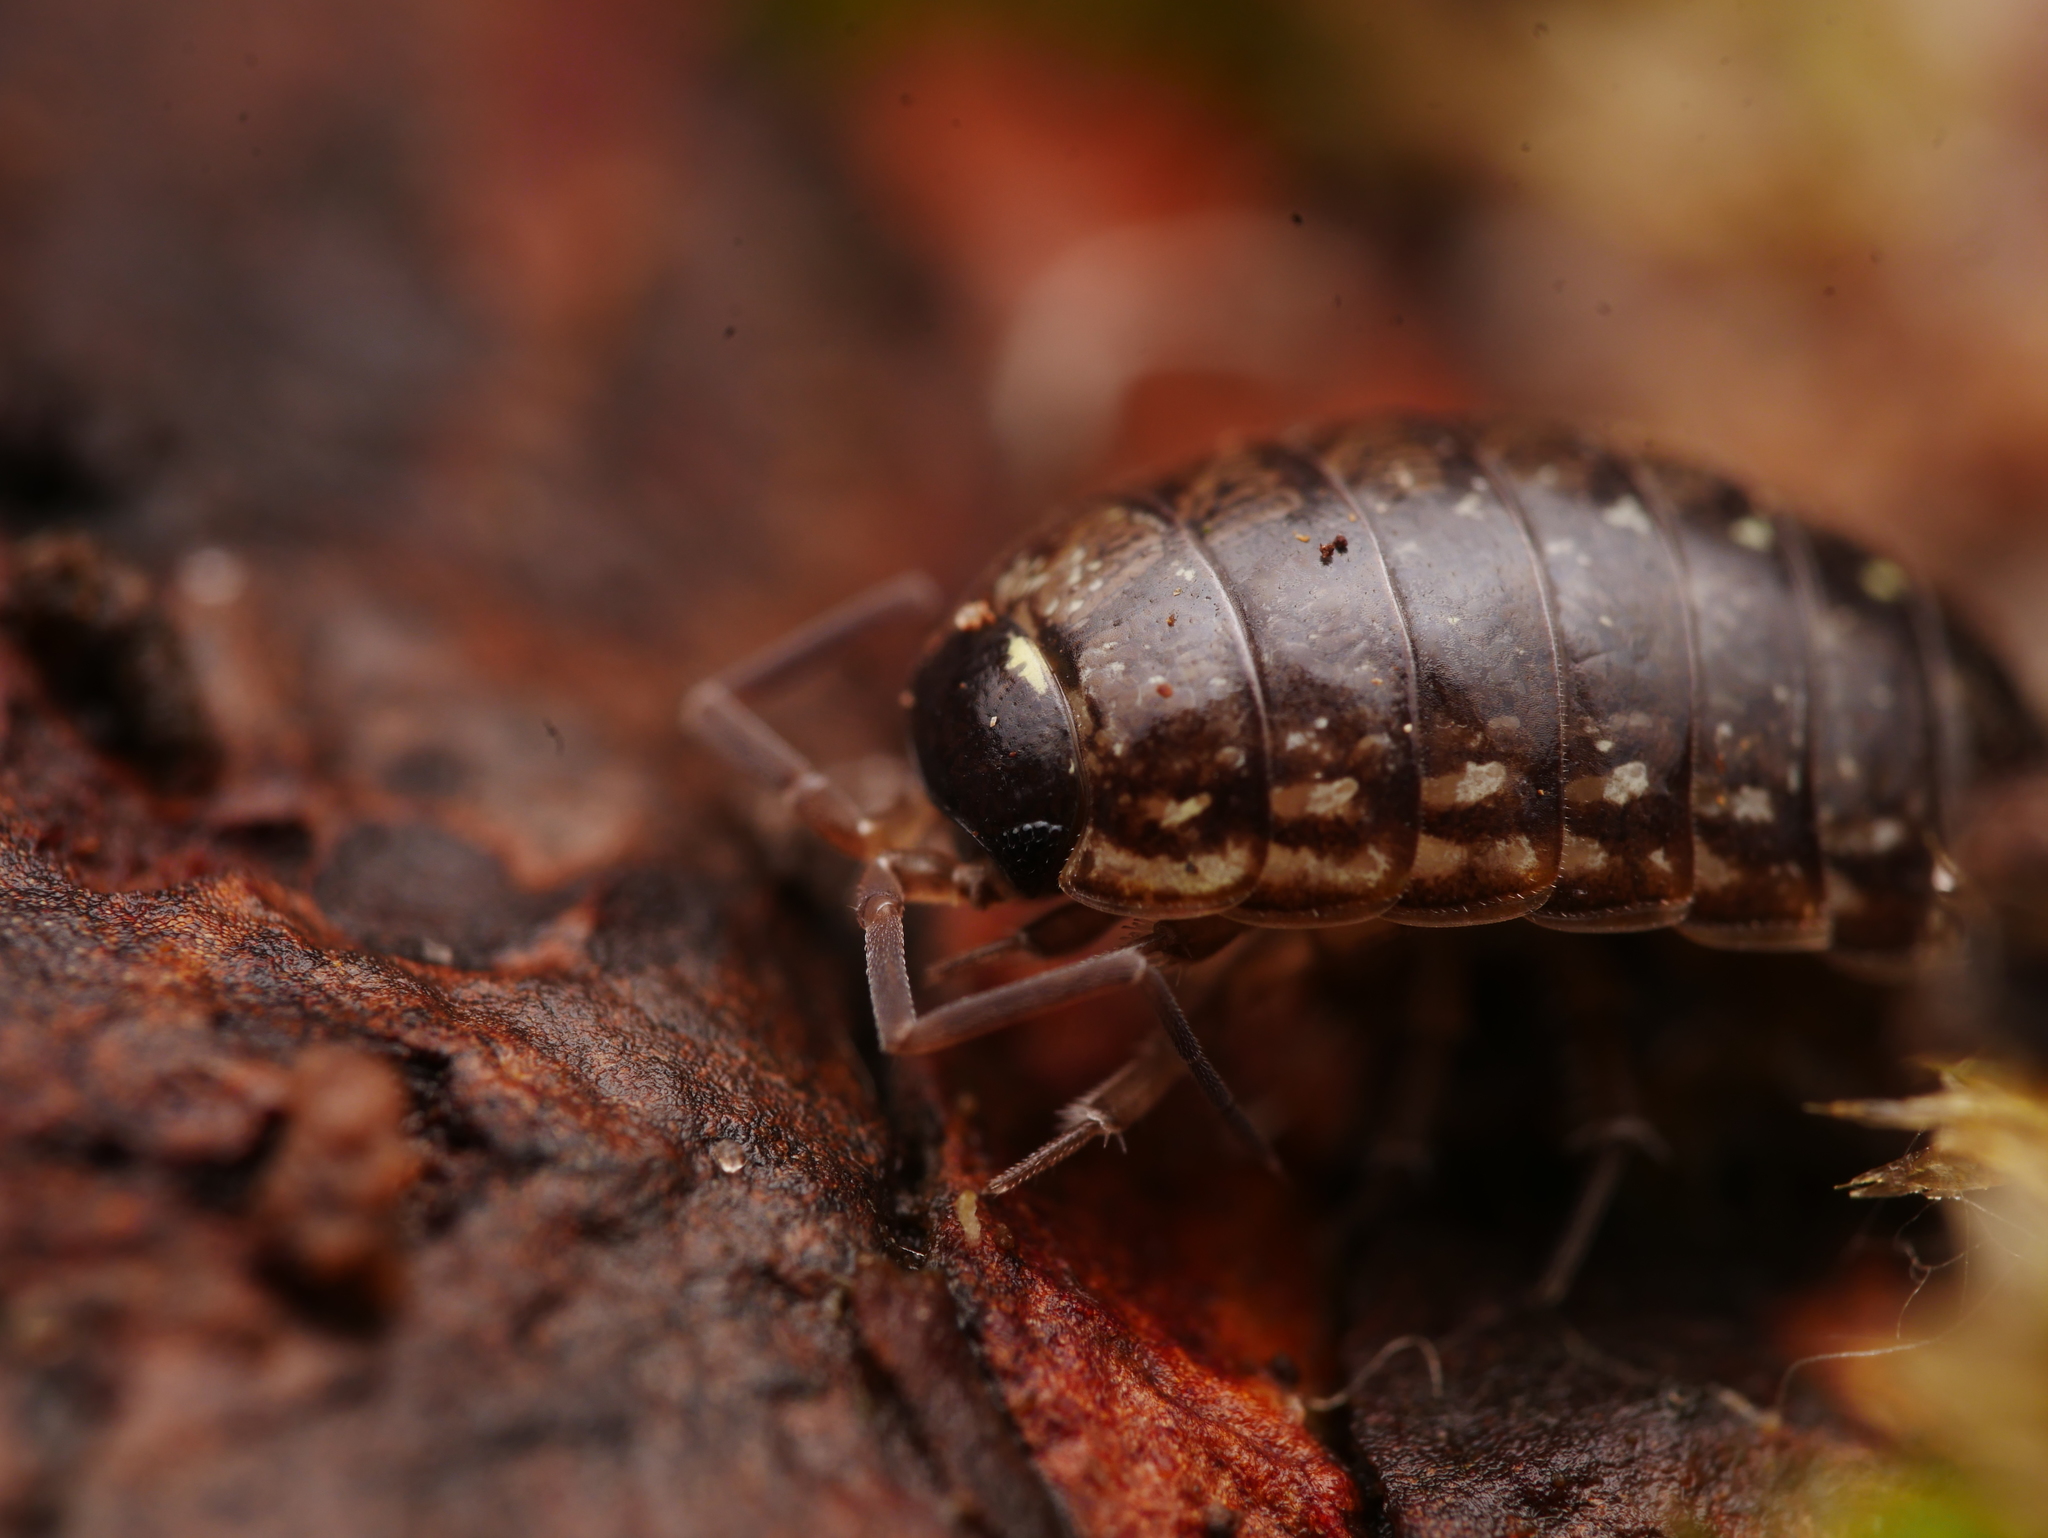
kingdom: Animalia
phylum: Arthropoda
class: Malacostraca
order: Isopoda
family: Philosciidae
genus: Philoscia
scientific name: Philoscia muscorum
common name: Common striped woodlouse
